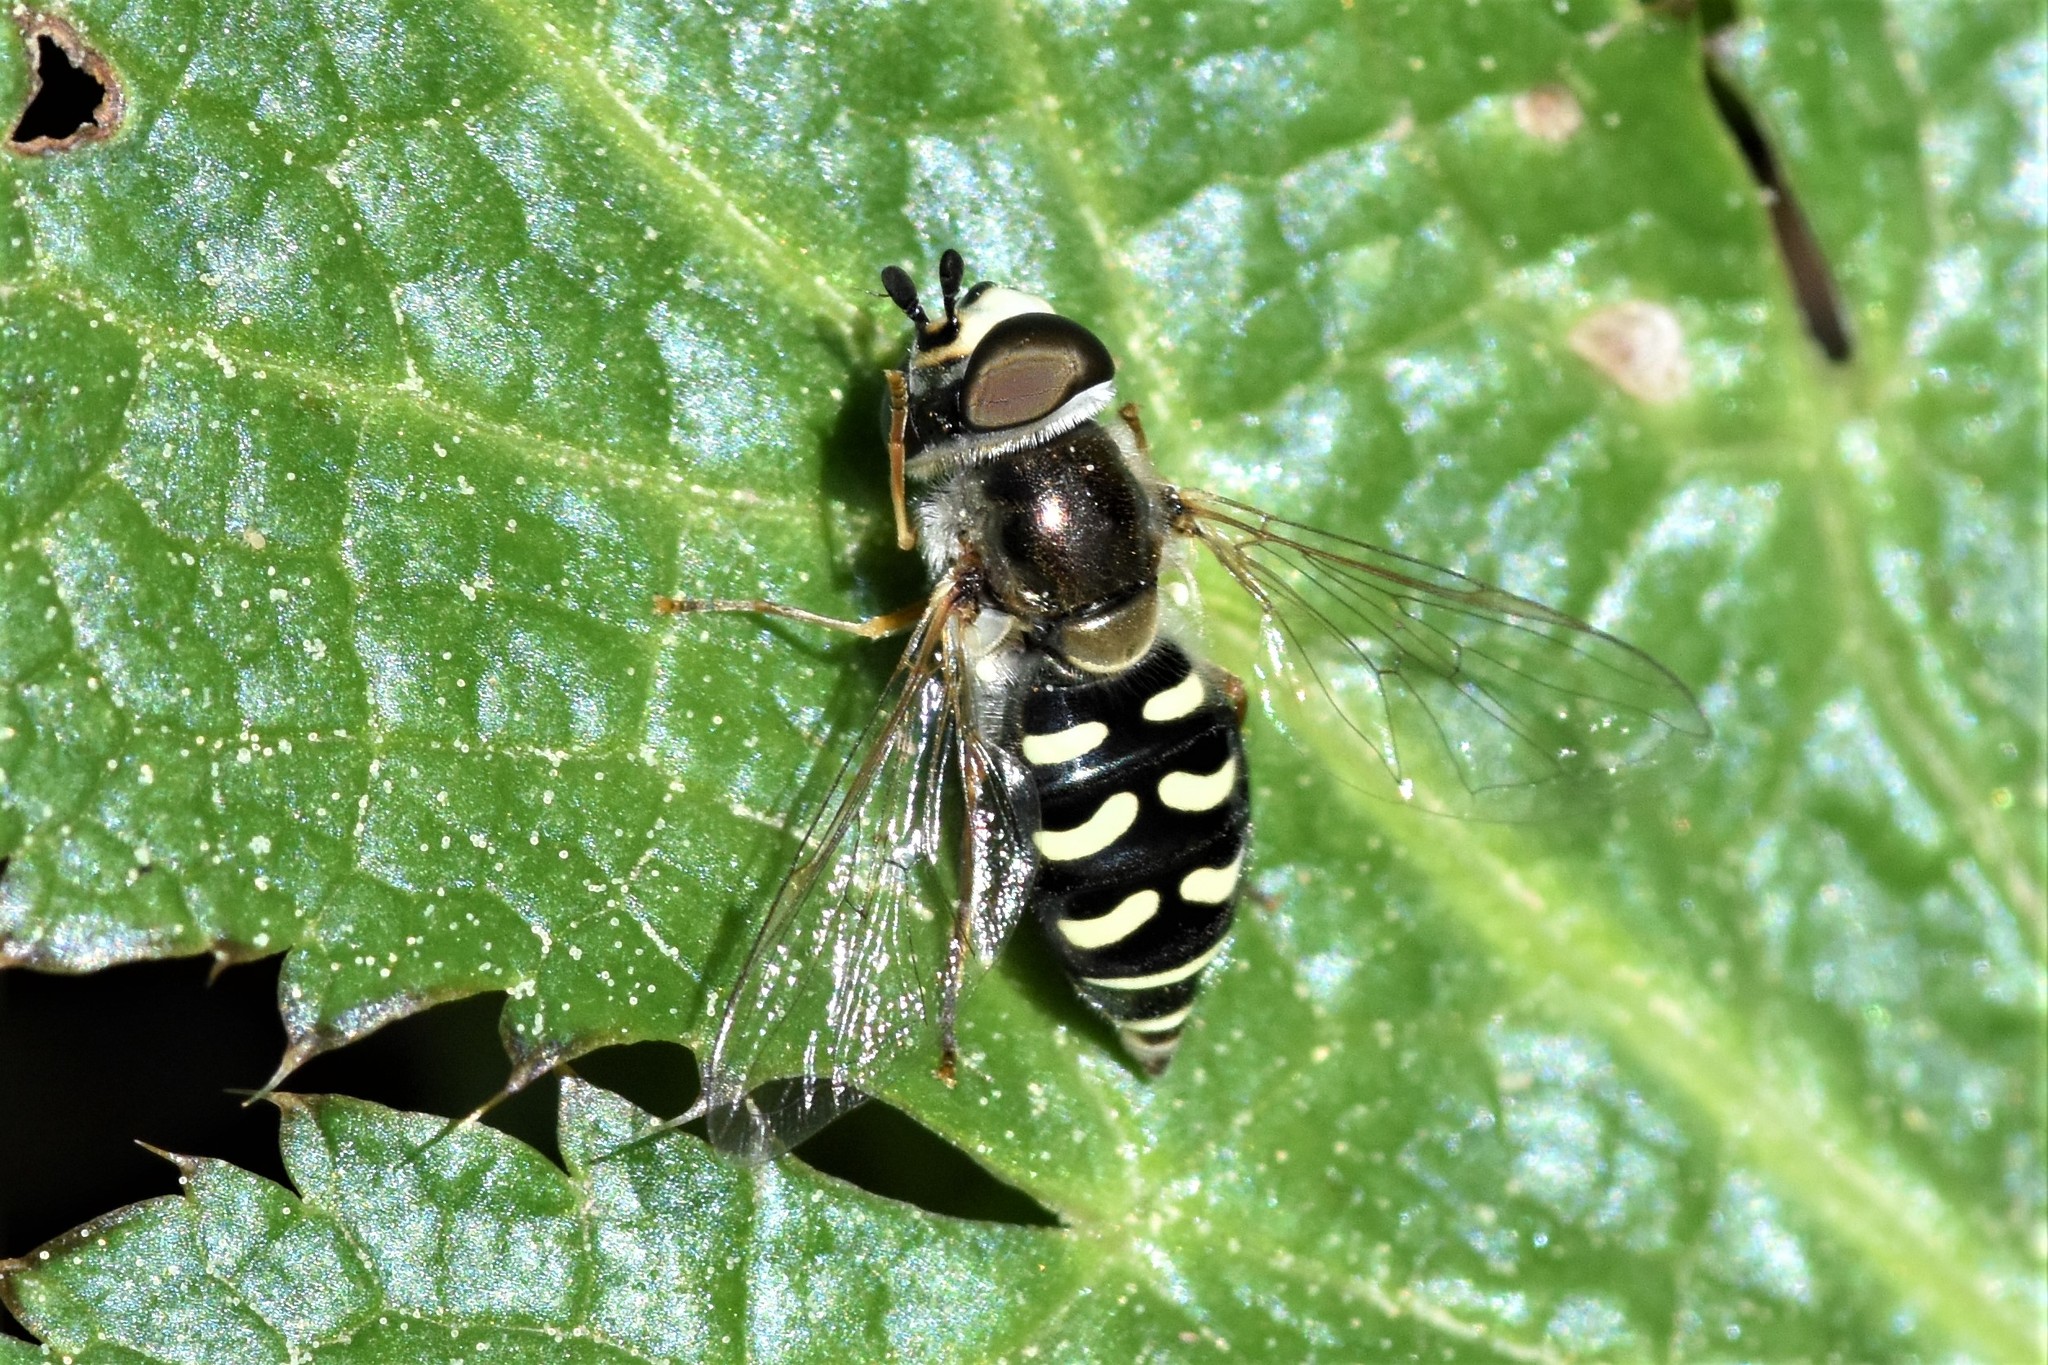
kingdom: Animalia
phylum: Arthropoda
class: Insecta
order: Diptera
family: Syrphidae
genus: Eupeodes
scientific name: Eupeodes volucris
